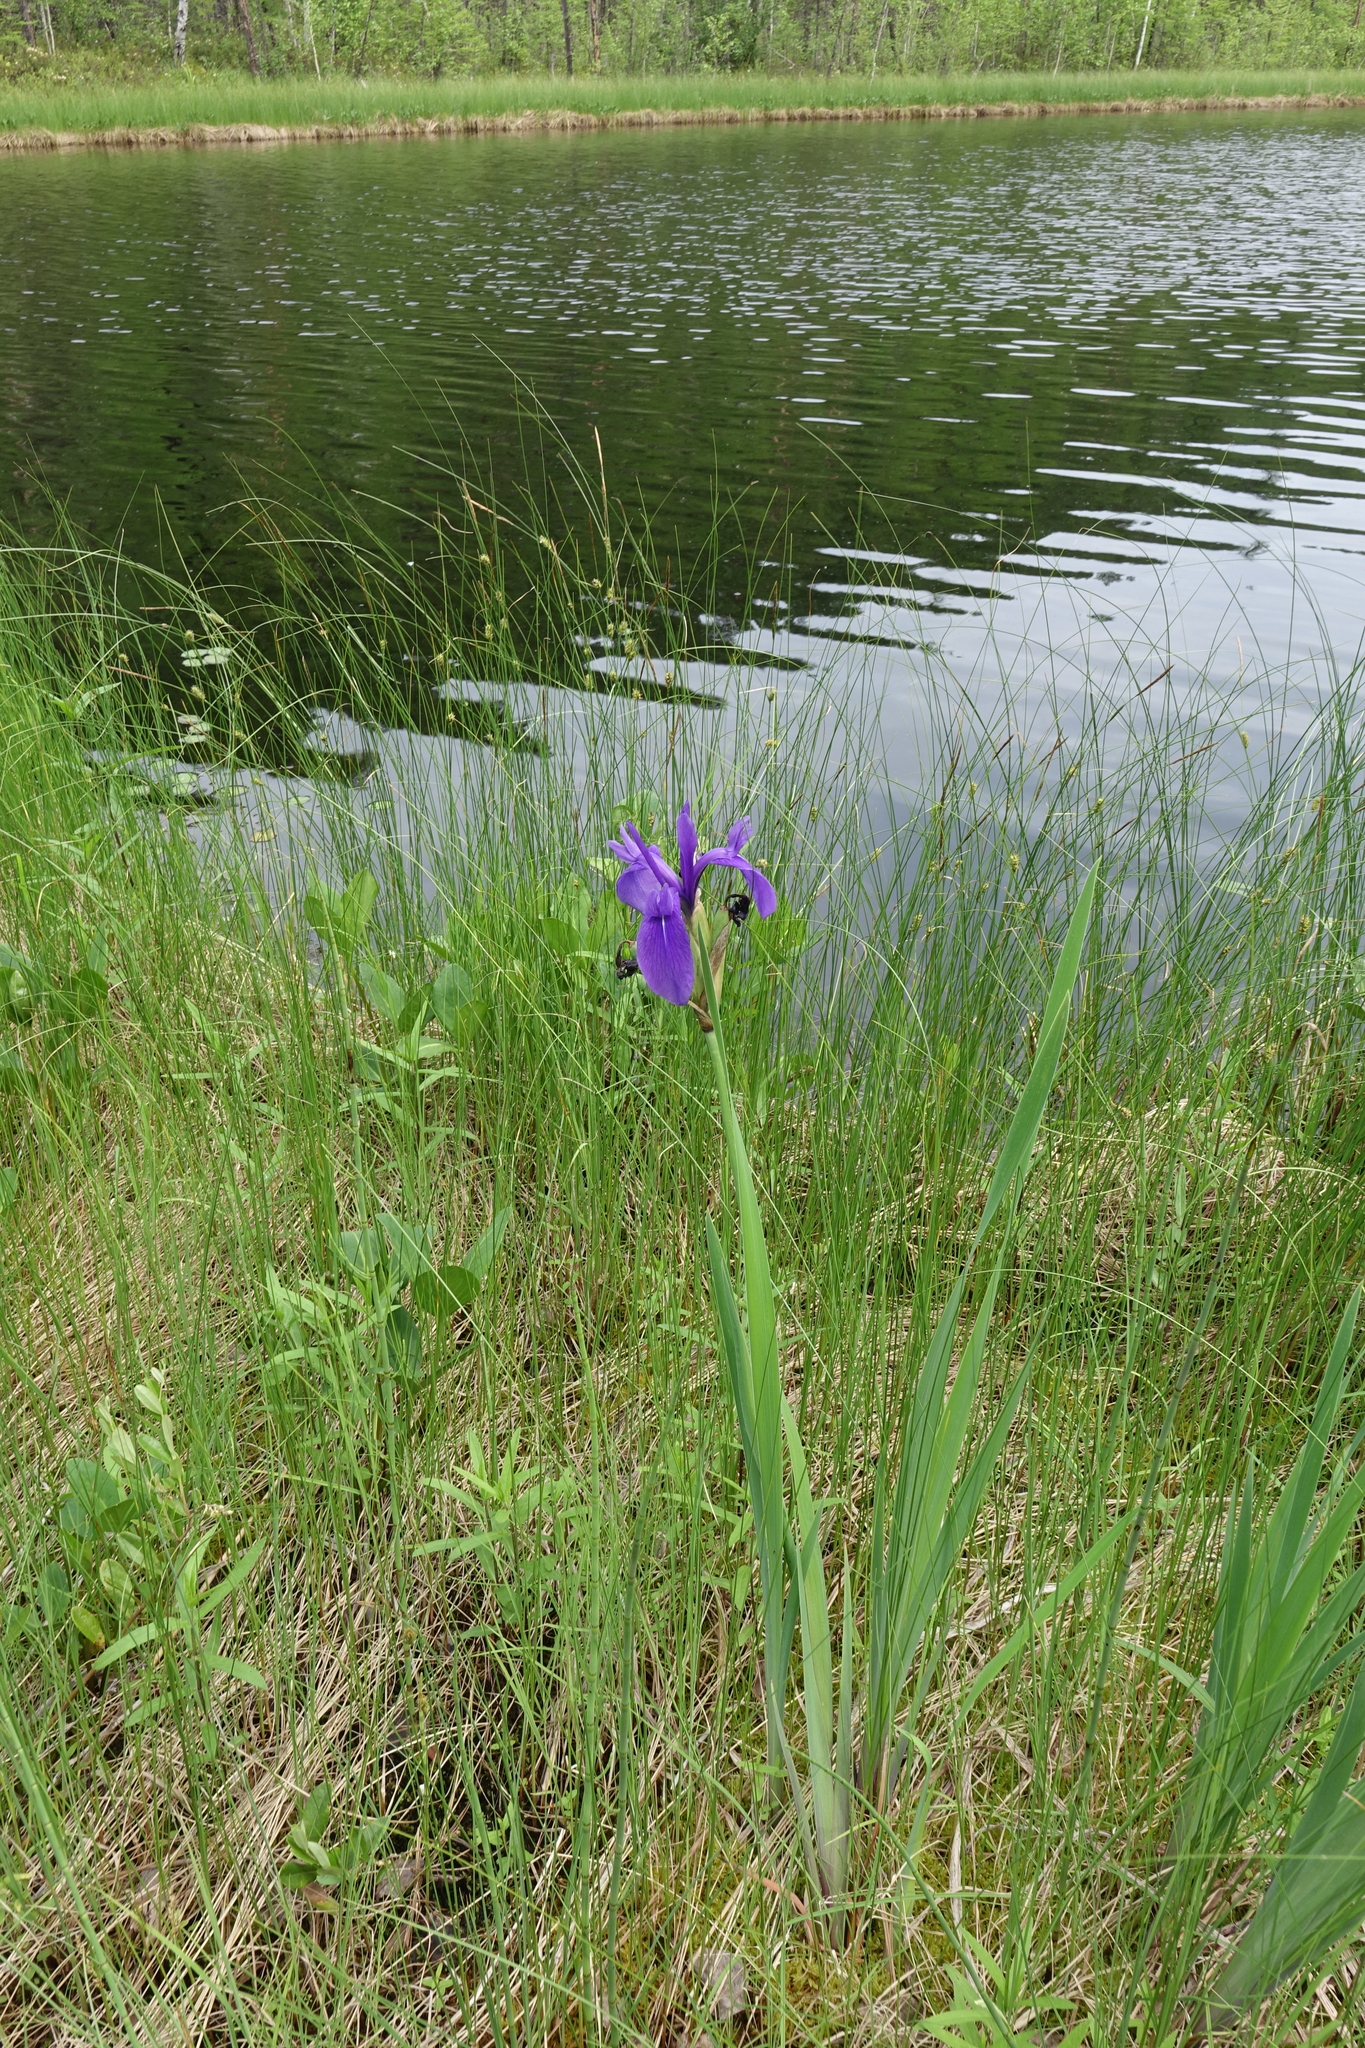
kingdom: Plantae
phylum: Tracheophyta
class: Liliopsida
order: Asparagales
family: Iridaceae
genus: Iris
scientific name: Iris laevigata
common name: Japanese iris
